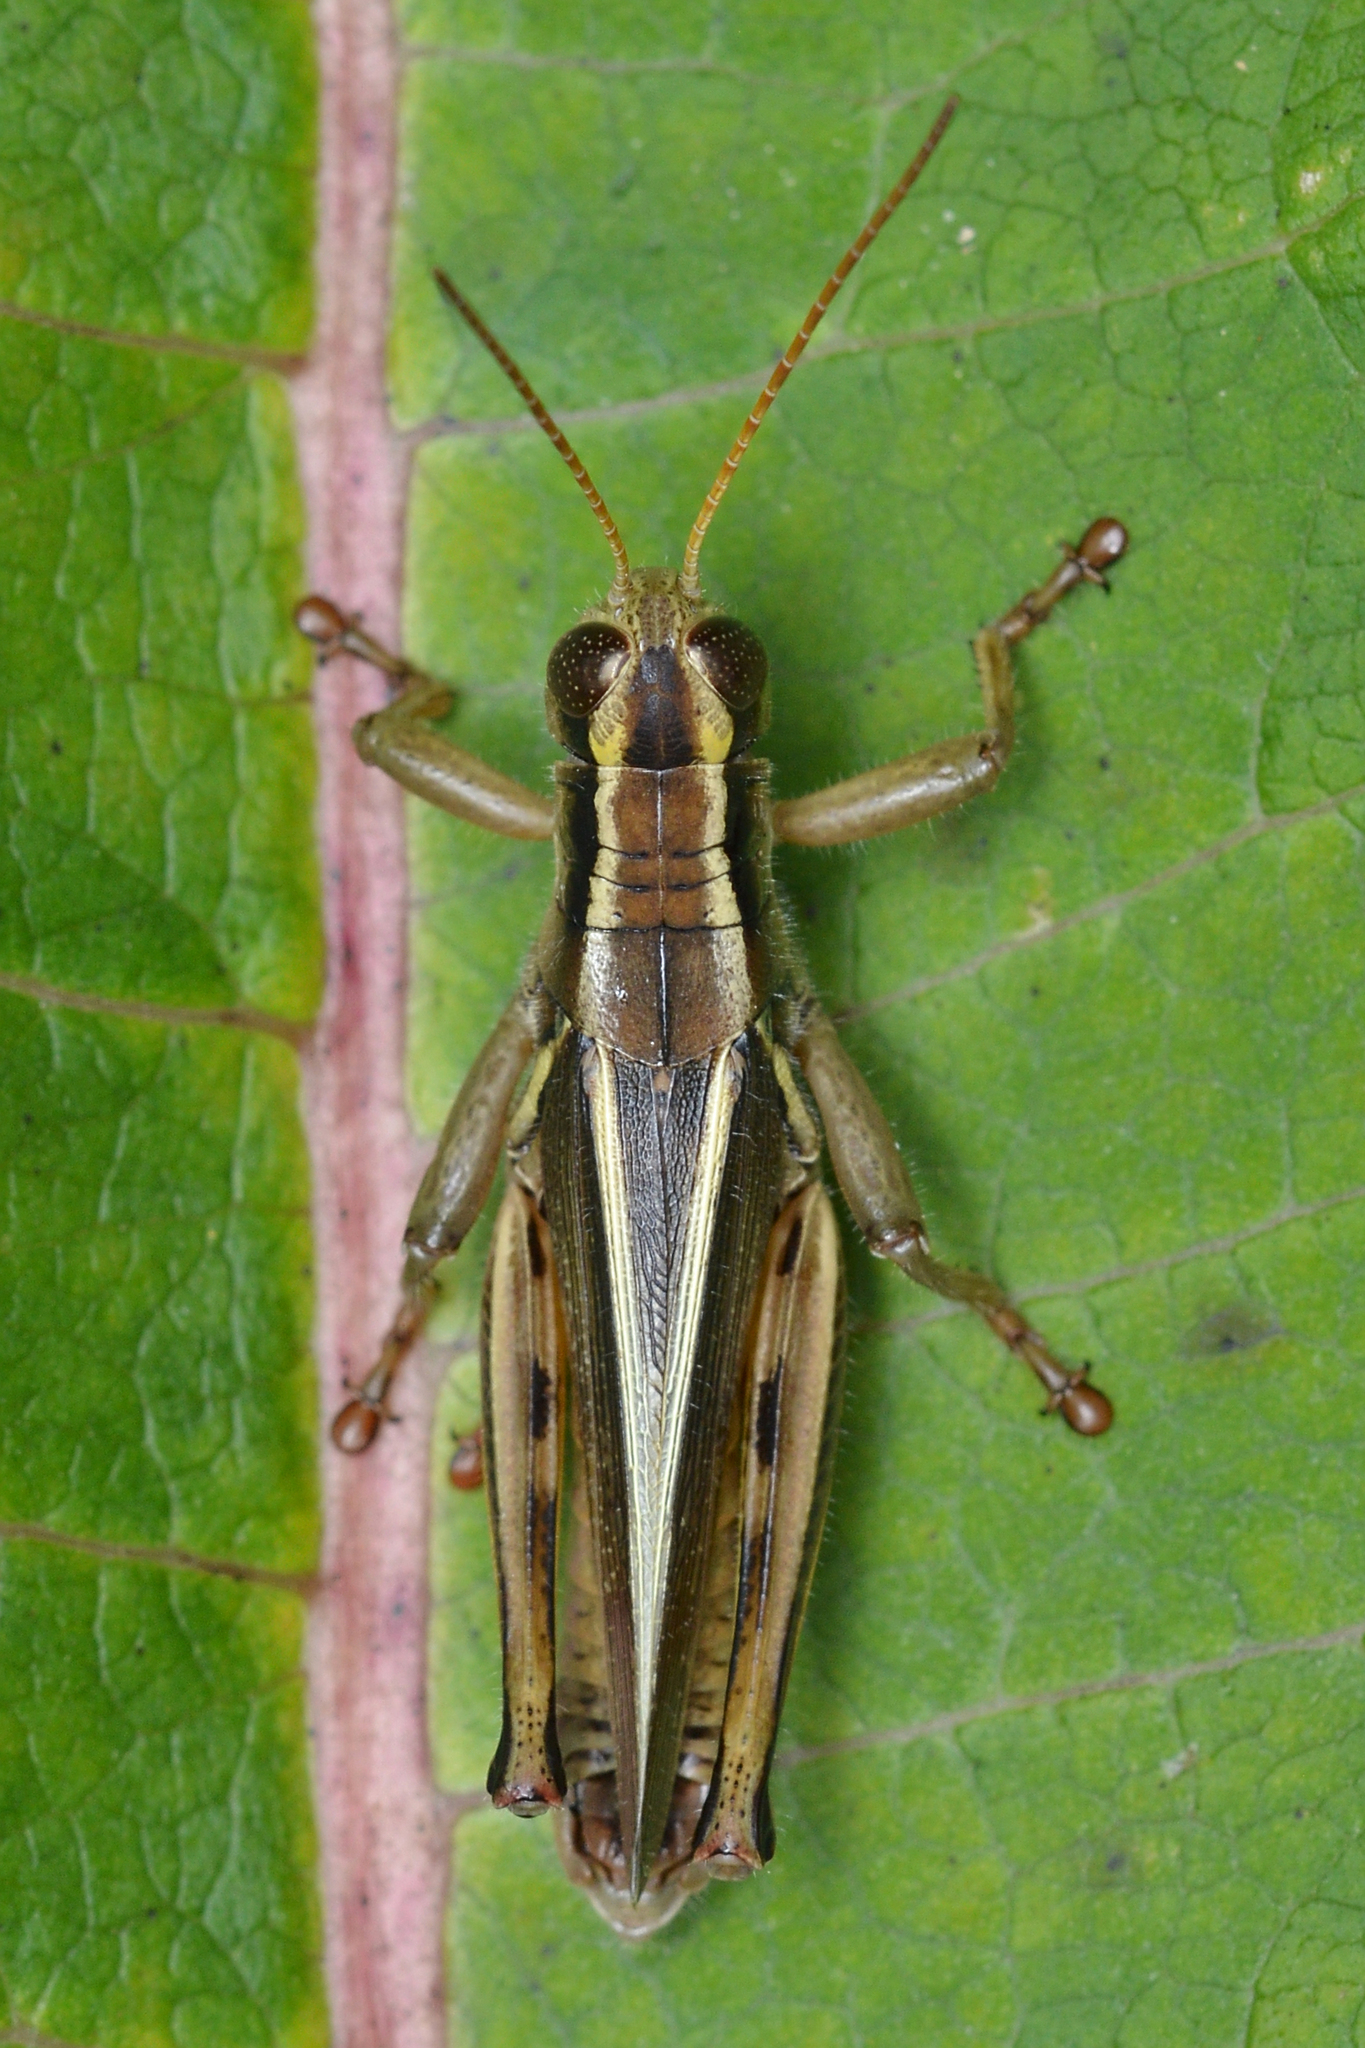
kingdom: Animalia
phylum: Arthropoda
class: Insecta
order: Orthoptera
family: Acrididae
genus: Melanoplus
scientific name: Melanoplus bivittatus
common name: Two-striped grasshopper
